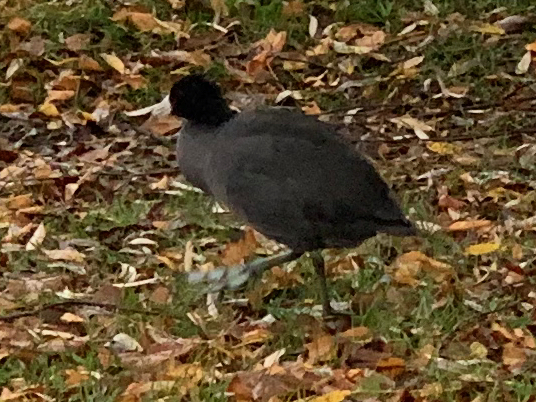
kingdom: Animalia
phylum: Chordata
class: Aves
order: Gruiformes
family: Rallidae
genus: Fulica
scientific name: Fulica americana
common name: American coot
